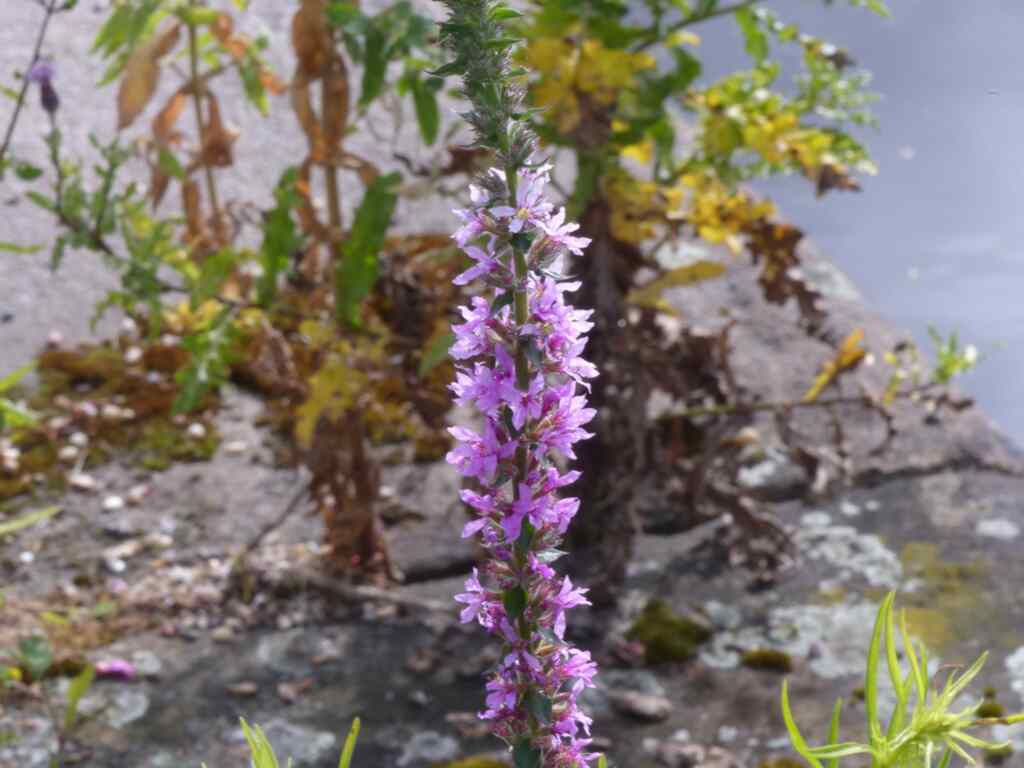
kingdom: Plantae
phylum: Tracheophyta
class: Magnoliopsida
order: Myrtales
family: Lythraceae
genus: Lythrum
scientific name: Lythrum salicaria
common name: Purple loosestrife
